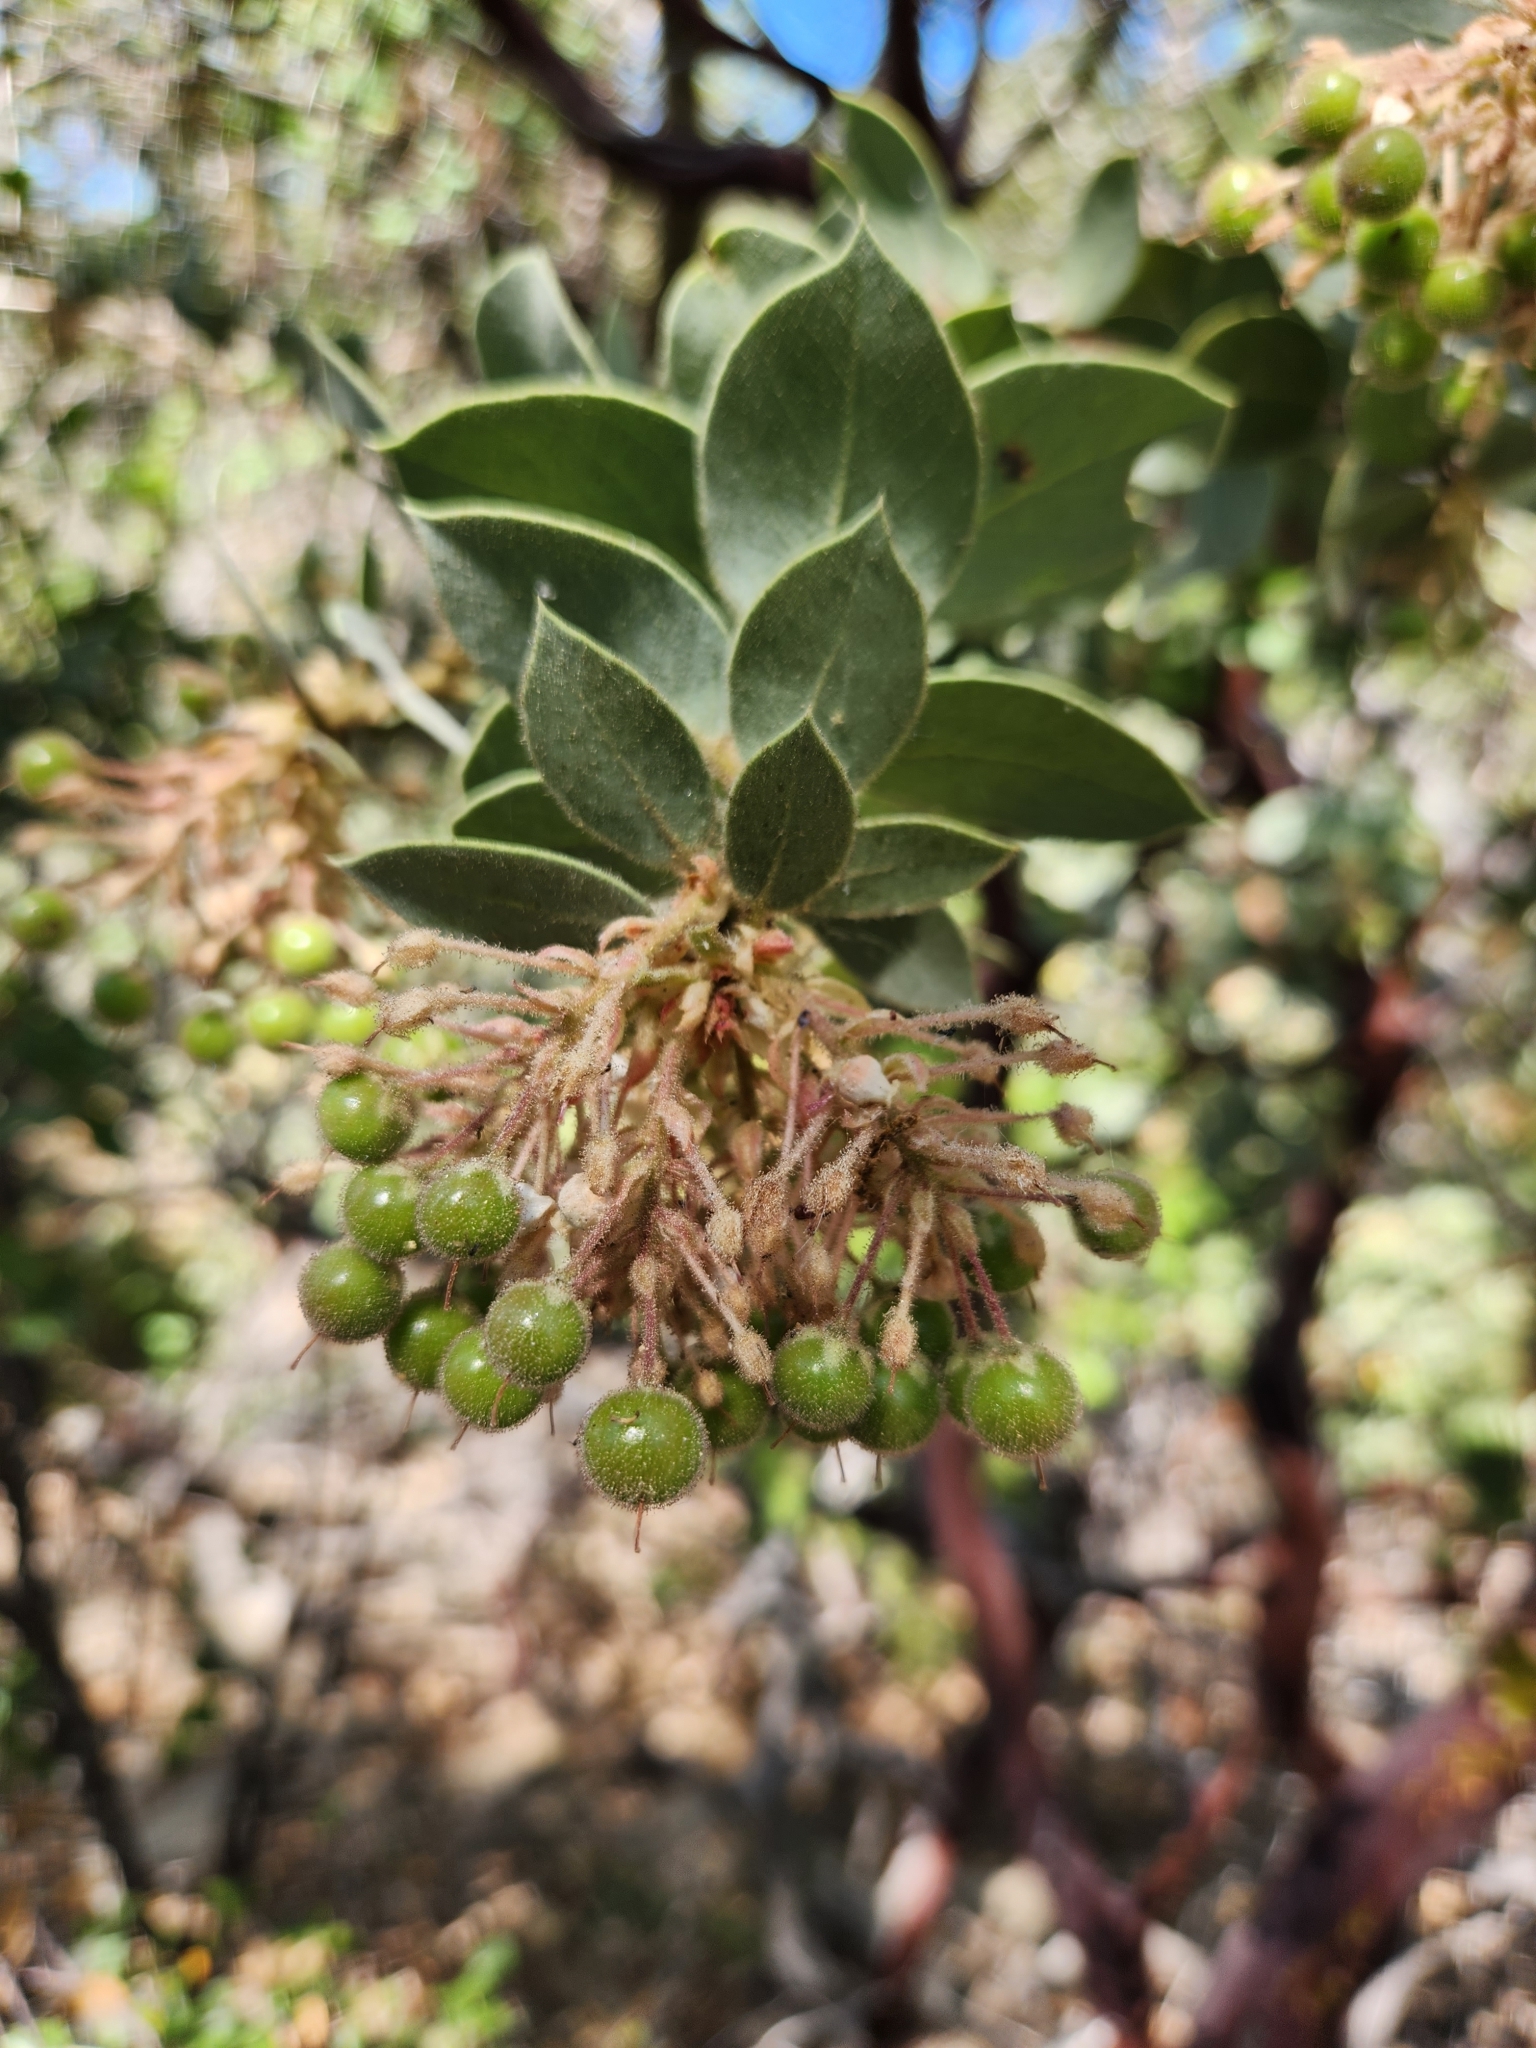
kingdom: Plantae
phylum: Tracheophyta
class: Magnoliopsida
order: Ericales
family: Ericaceae
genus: Arctostaphylos
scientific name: Arctostaphylos pringlei
